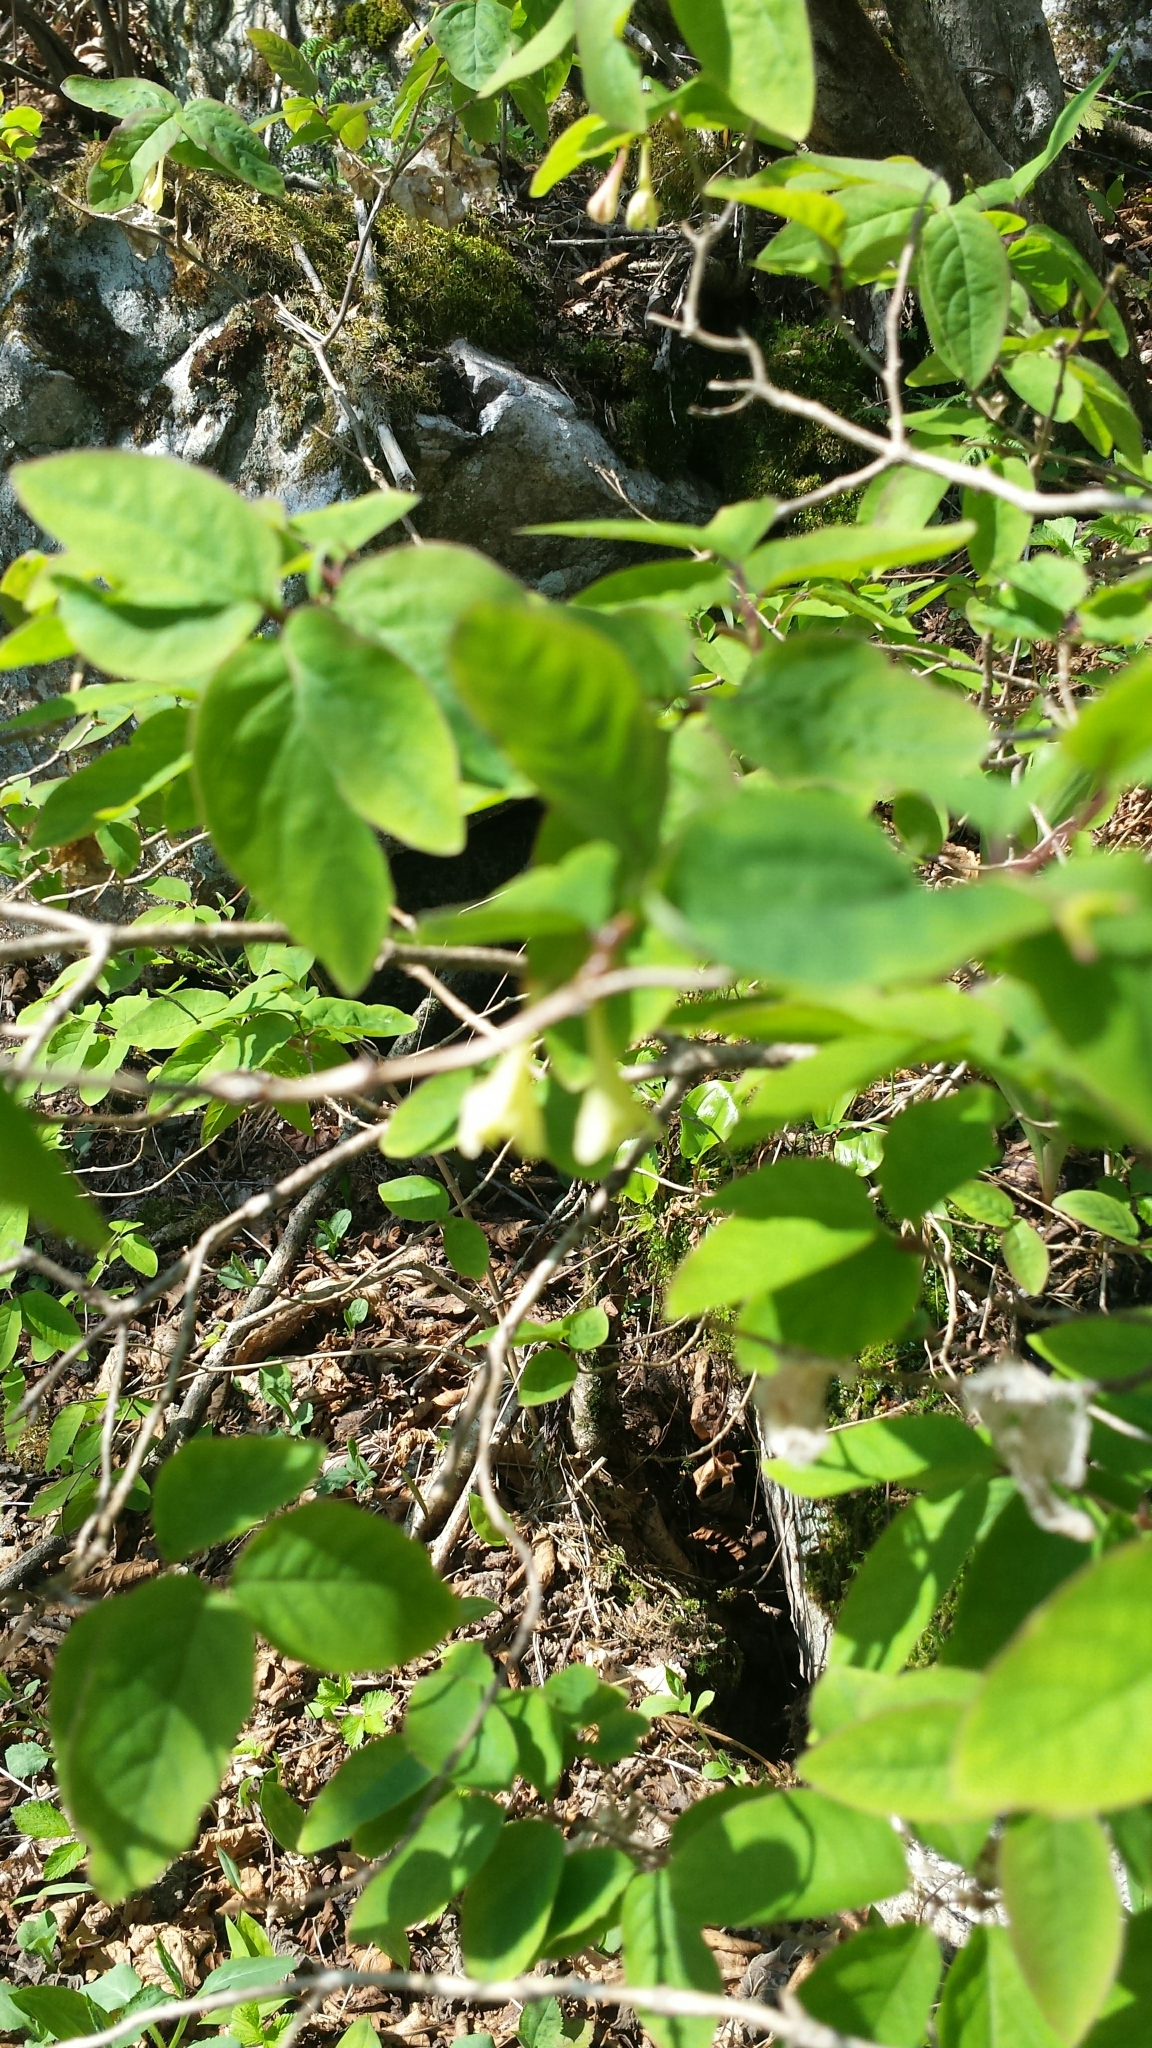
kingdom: Plantae
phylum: Tracheophyta
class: Magnoliopsida
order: Dipsacales
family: Caprifoliaceae
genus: Lonicera
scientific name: Lonicera canadensis
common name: American fly-honeysuckle
